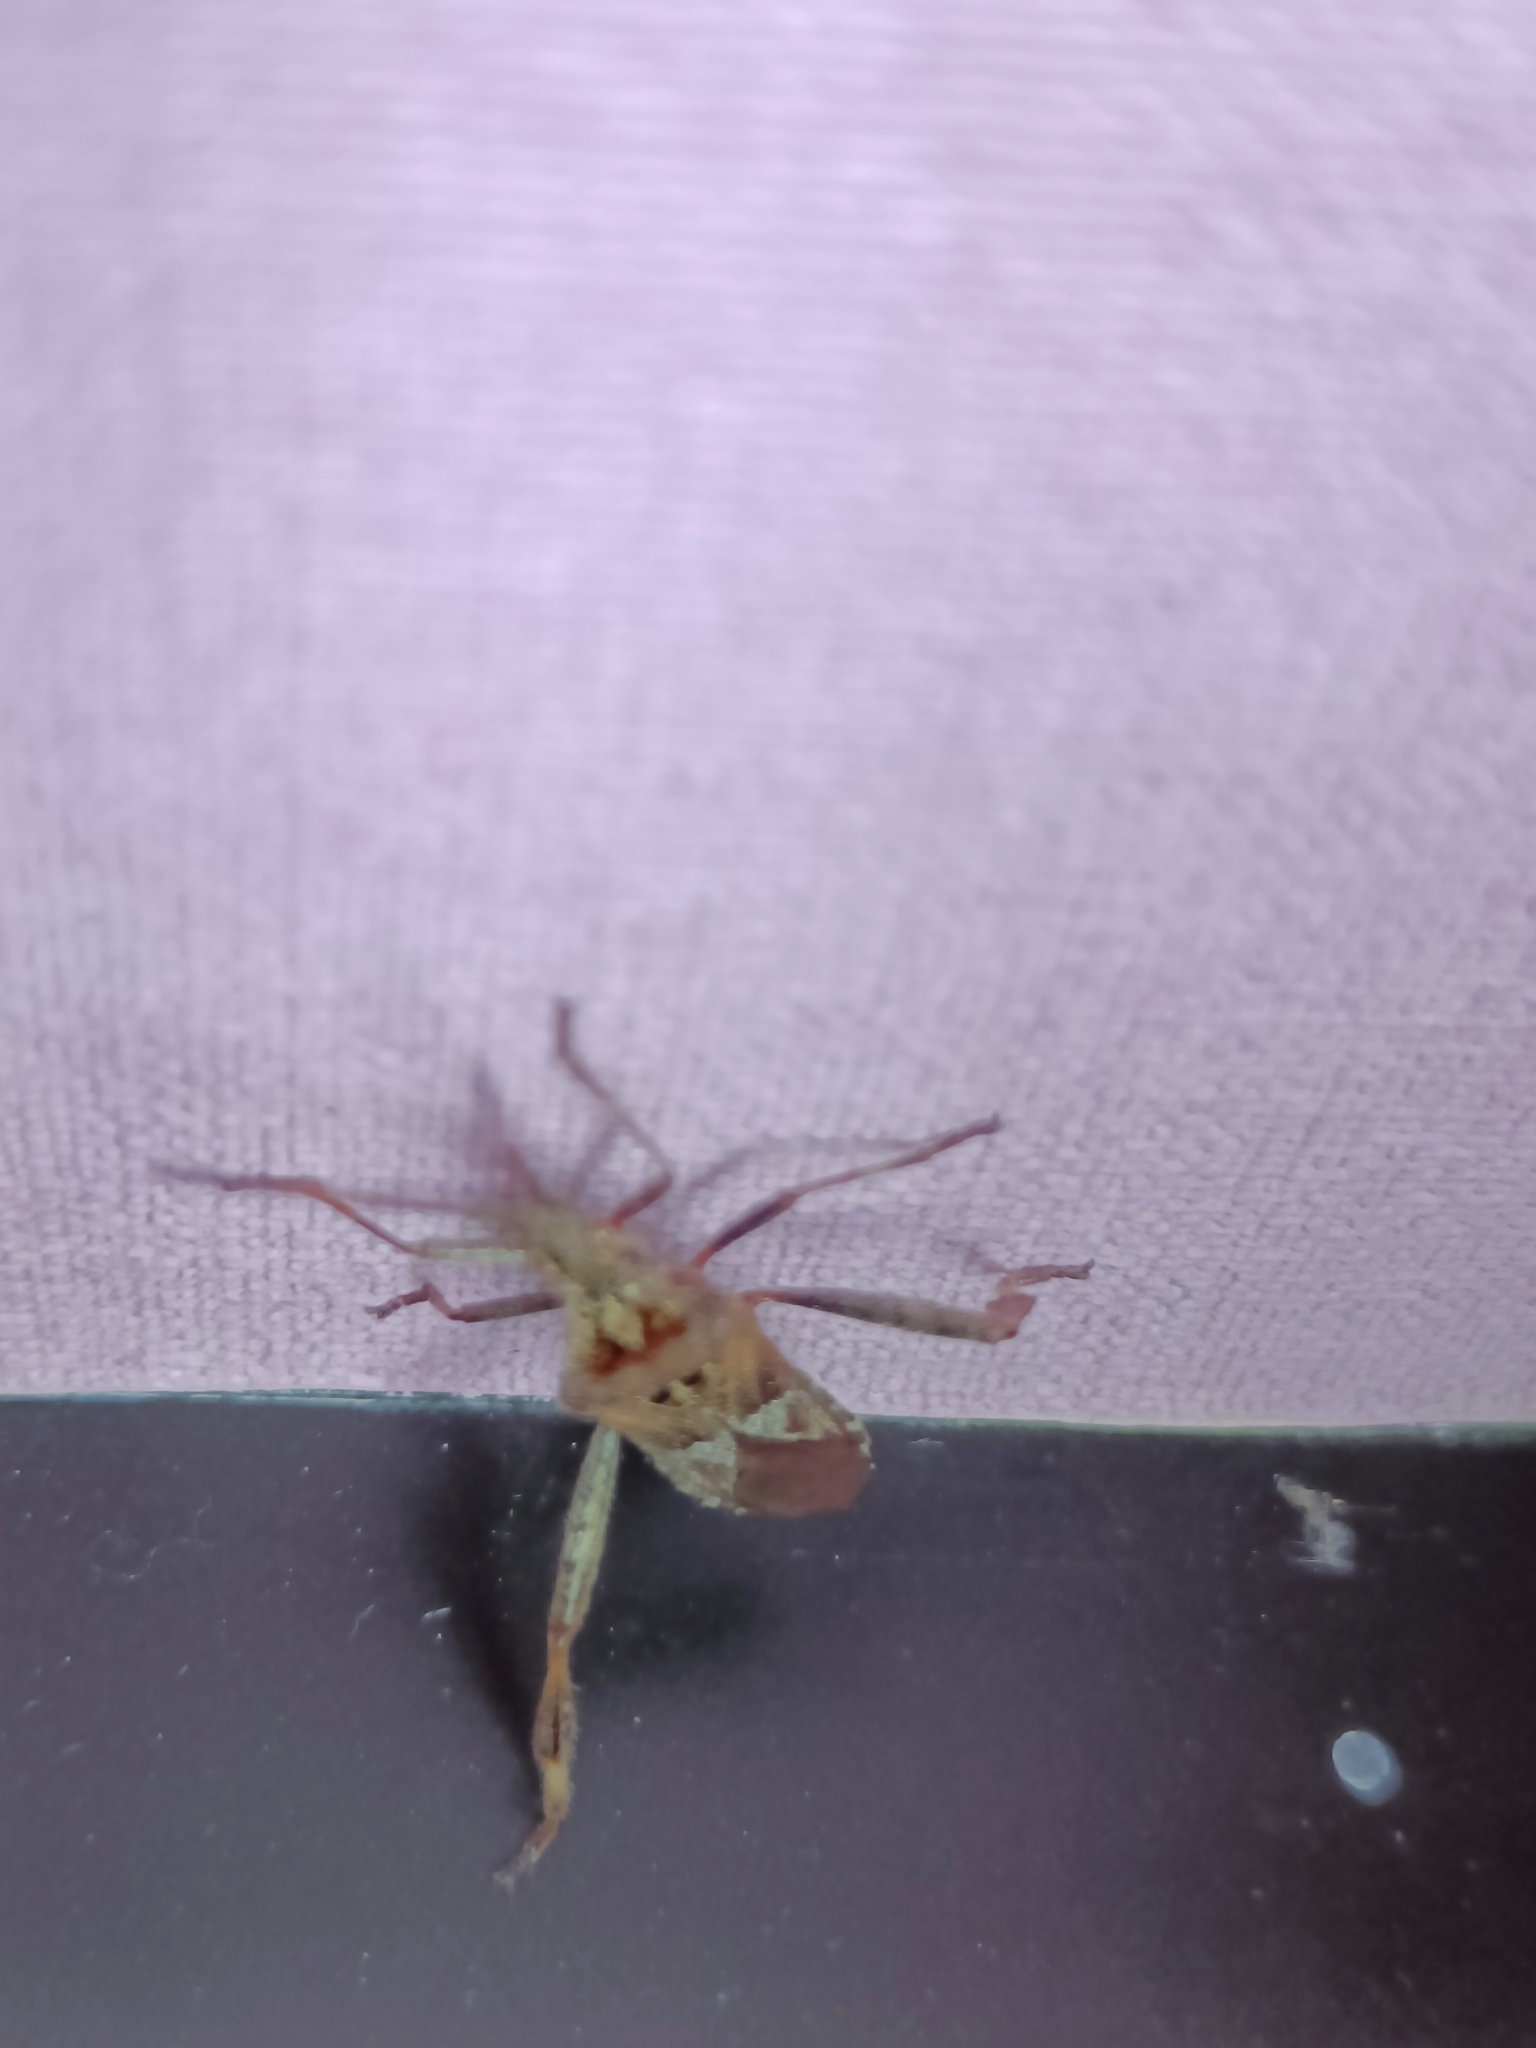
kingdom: Animalia
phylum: Arthropoda
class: Insecta
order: Hemiptera
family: Coreidae
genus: Leptoglossus
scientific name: Leptoglossus occidentalis
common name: Western conifer-seed bug
